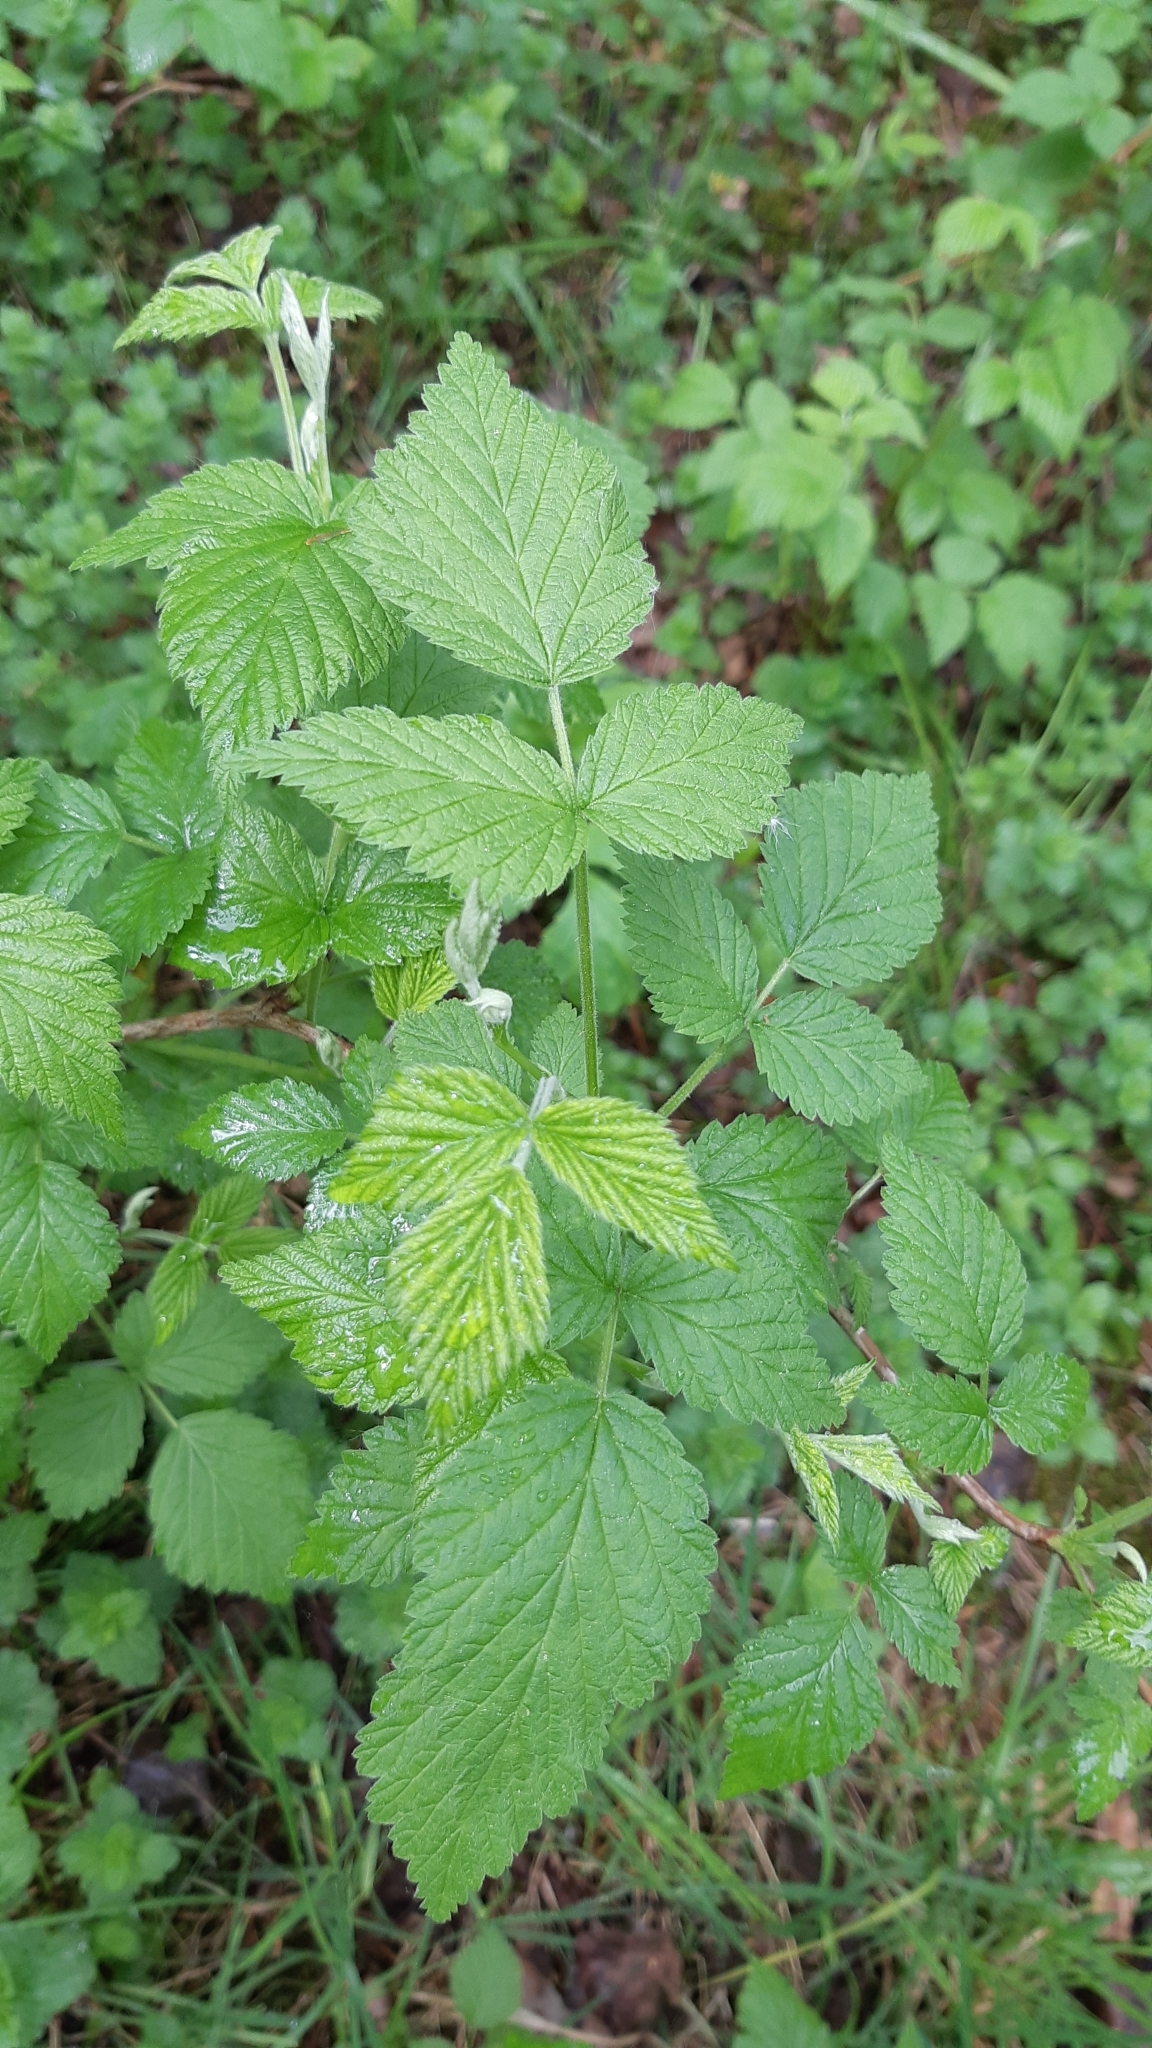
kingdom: Plantae
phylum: Tracheophyta
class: Magnoliopsida
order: Rosales
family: Rosaceae
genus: Rubus
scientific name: Rubus idaeus
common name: Raspberry
